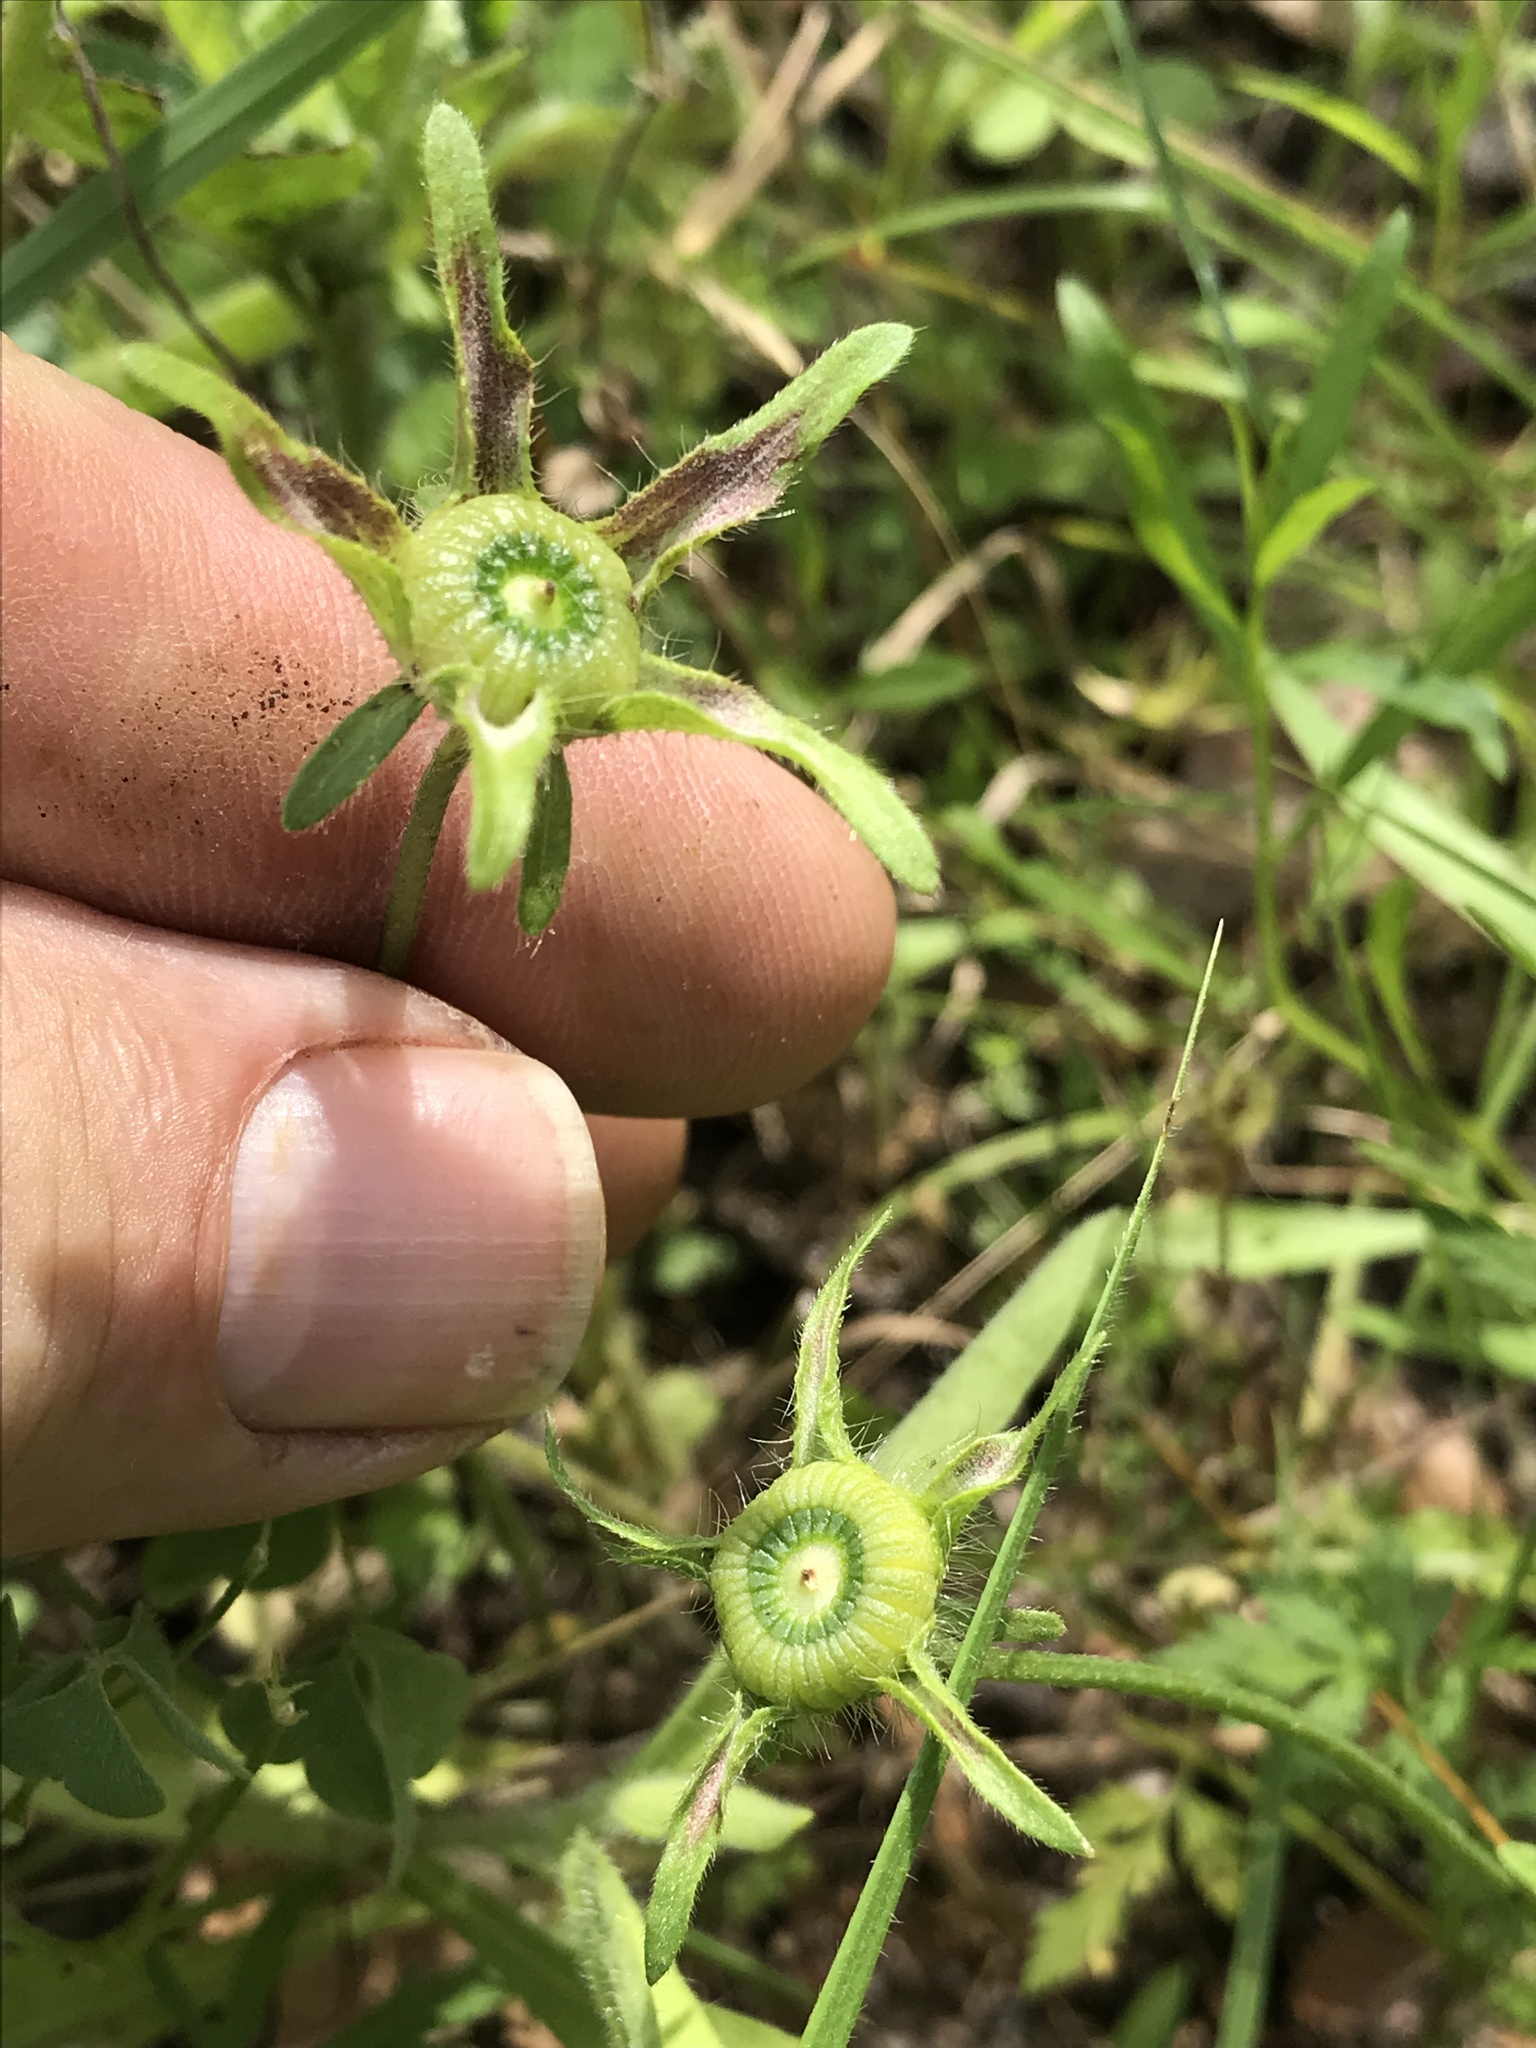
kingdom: Plantae
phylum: Tracheophyta
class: Magnoliopsida
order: Malvales
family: Malvaceae
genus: Callirhoe
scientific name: Callirhoe involucrata
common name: Purple poppy-mallow
